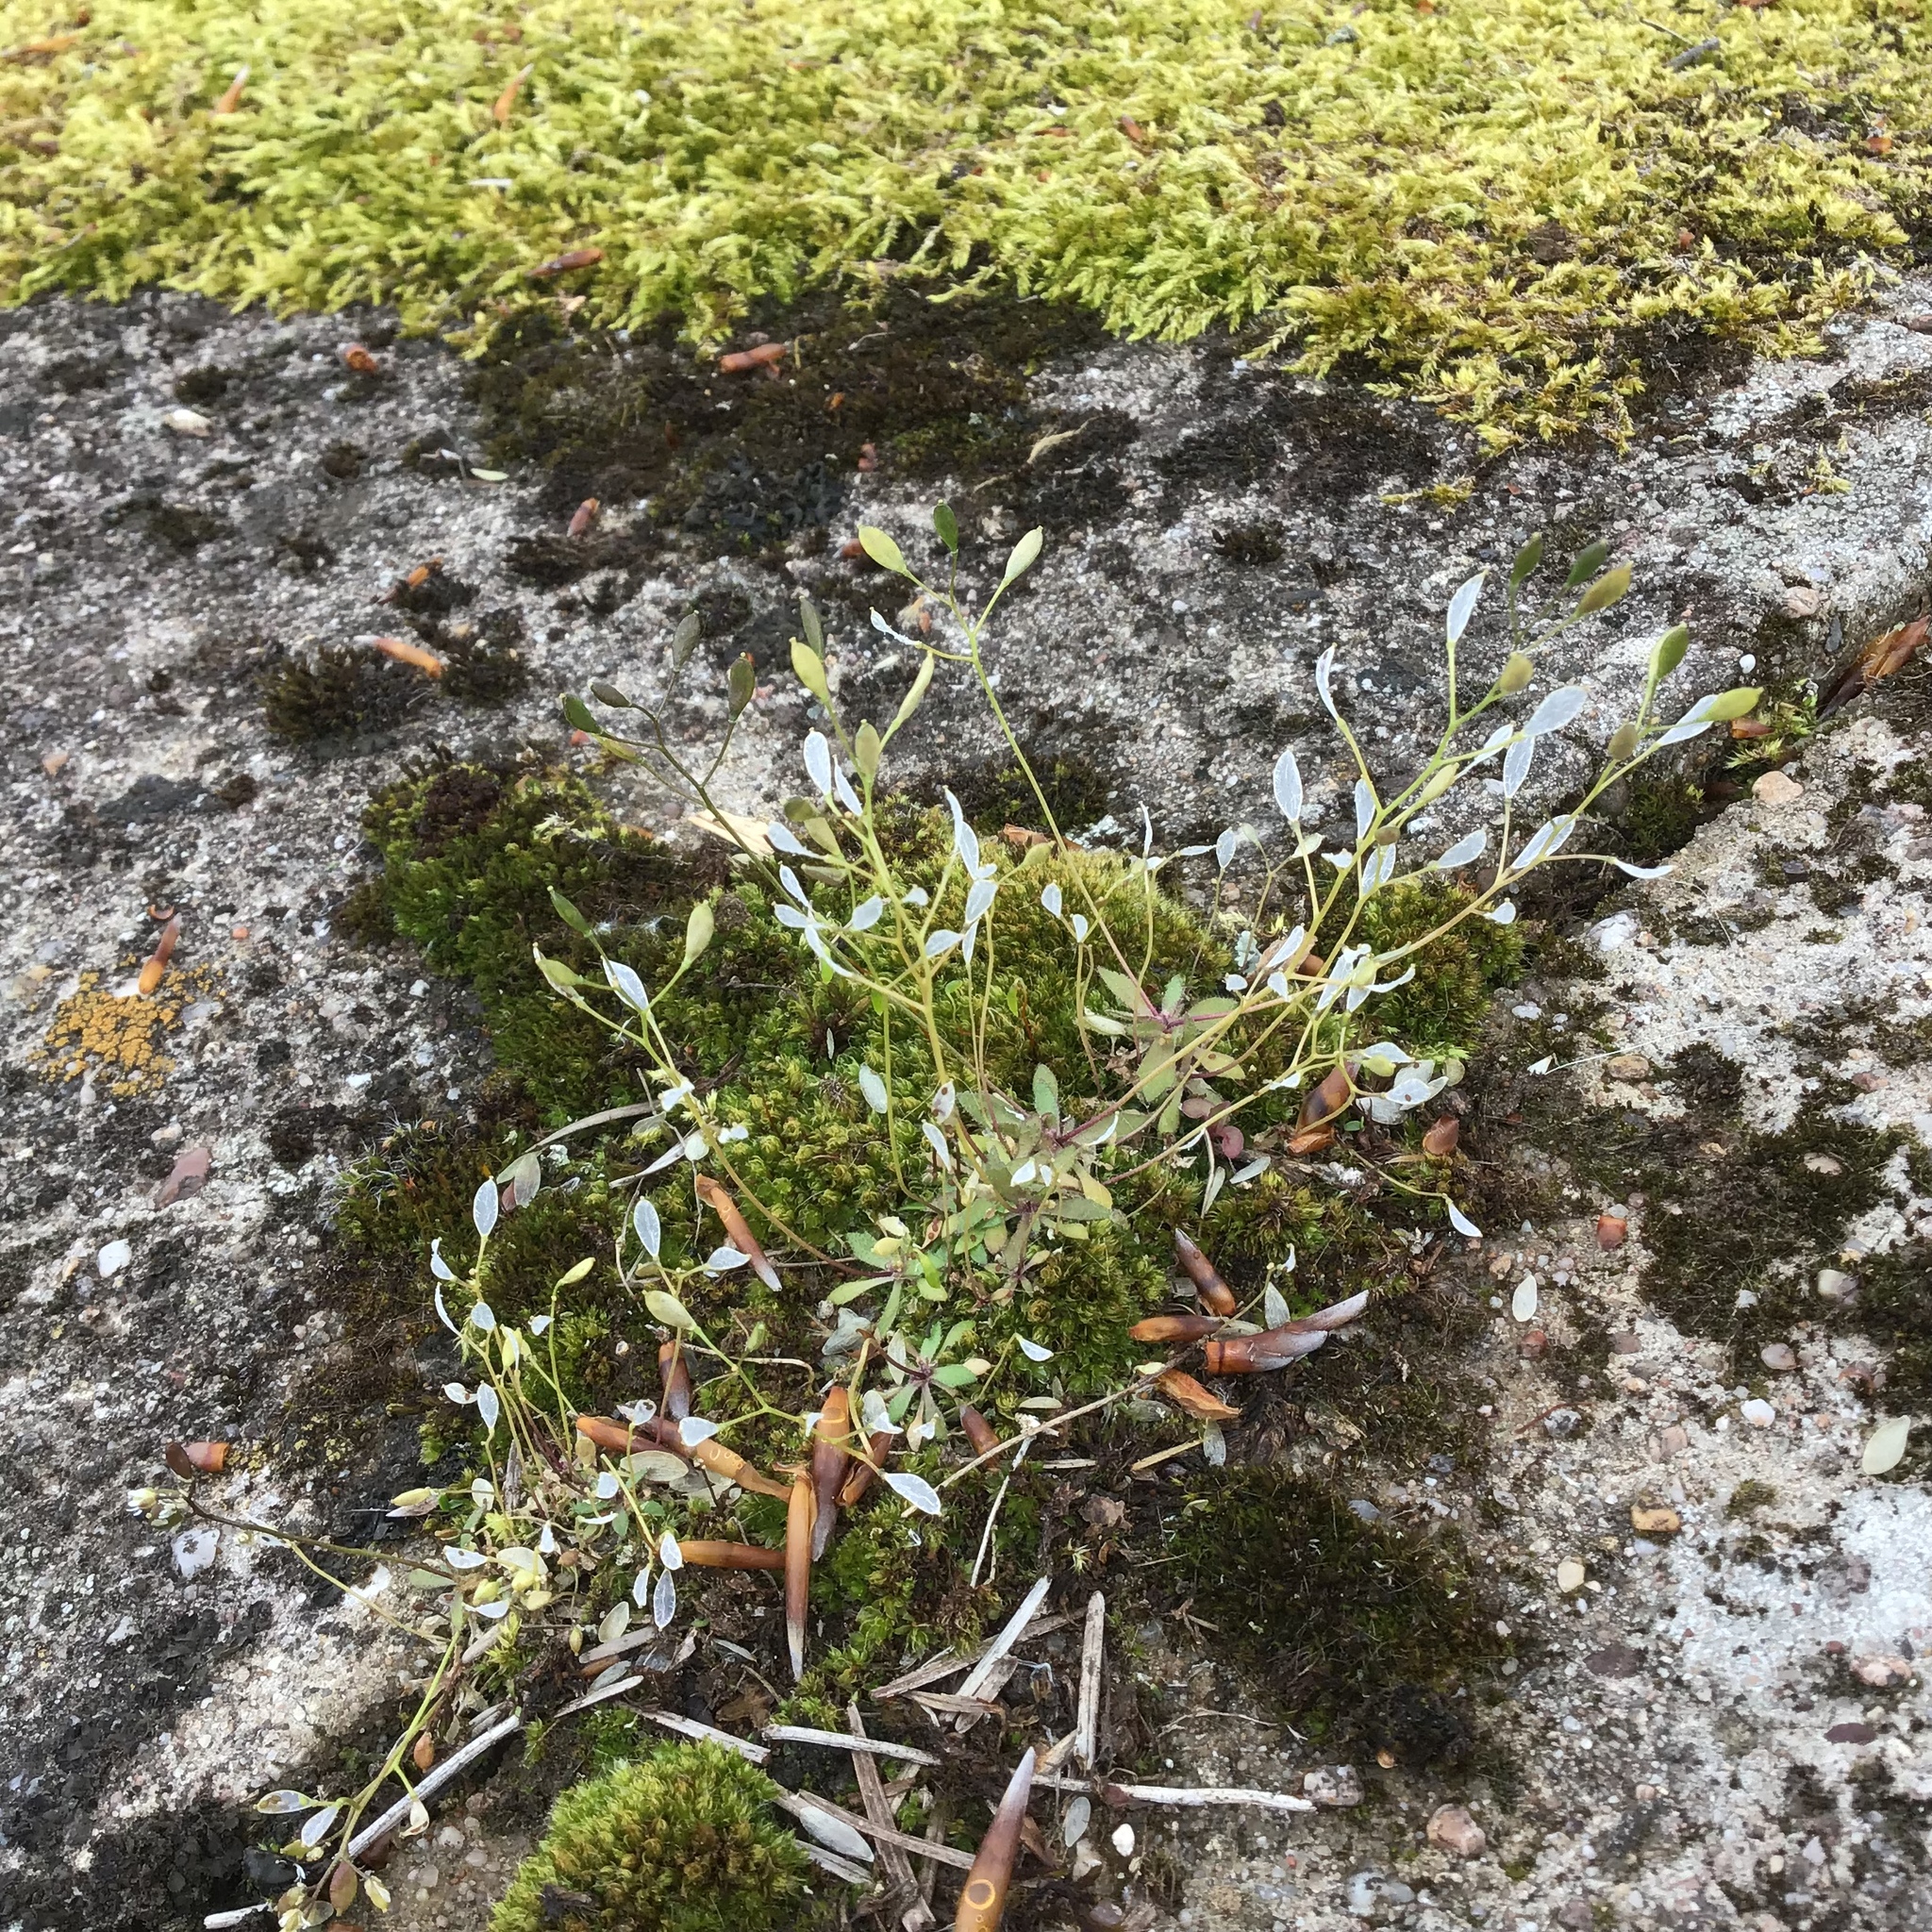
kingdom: Plantae
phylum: Tracheophyta
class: Magnoliopsida
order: Brassicales
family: Brassicaceae
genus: Draba
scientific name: Draba verna
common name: Spring draba
